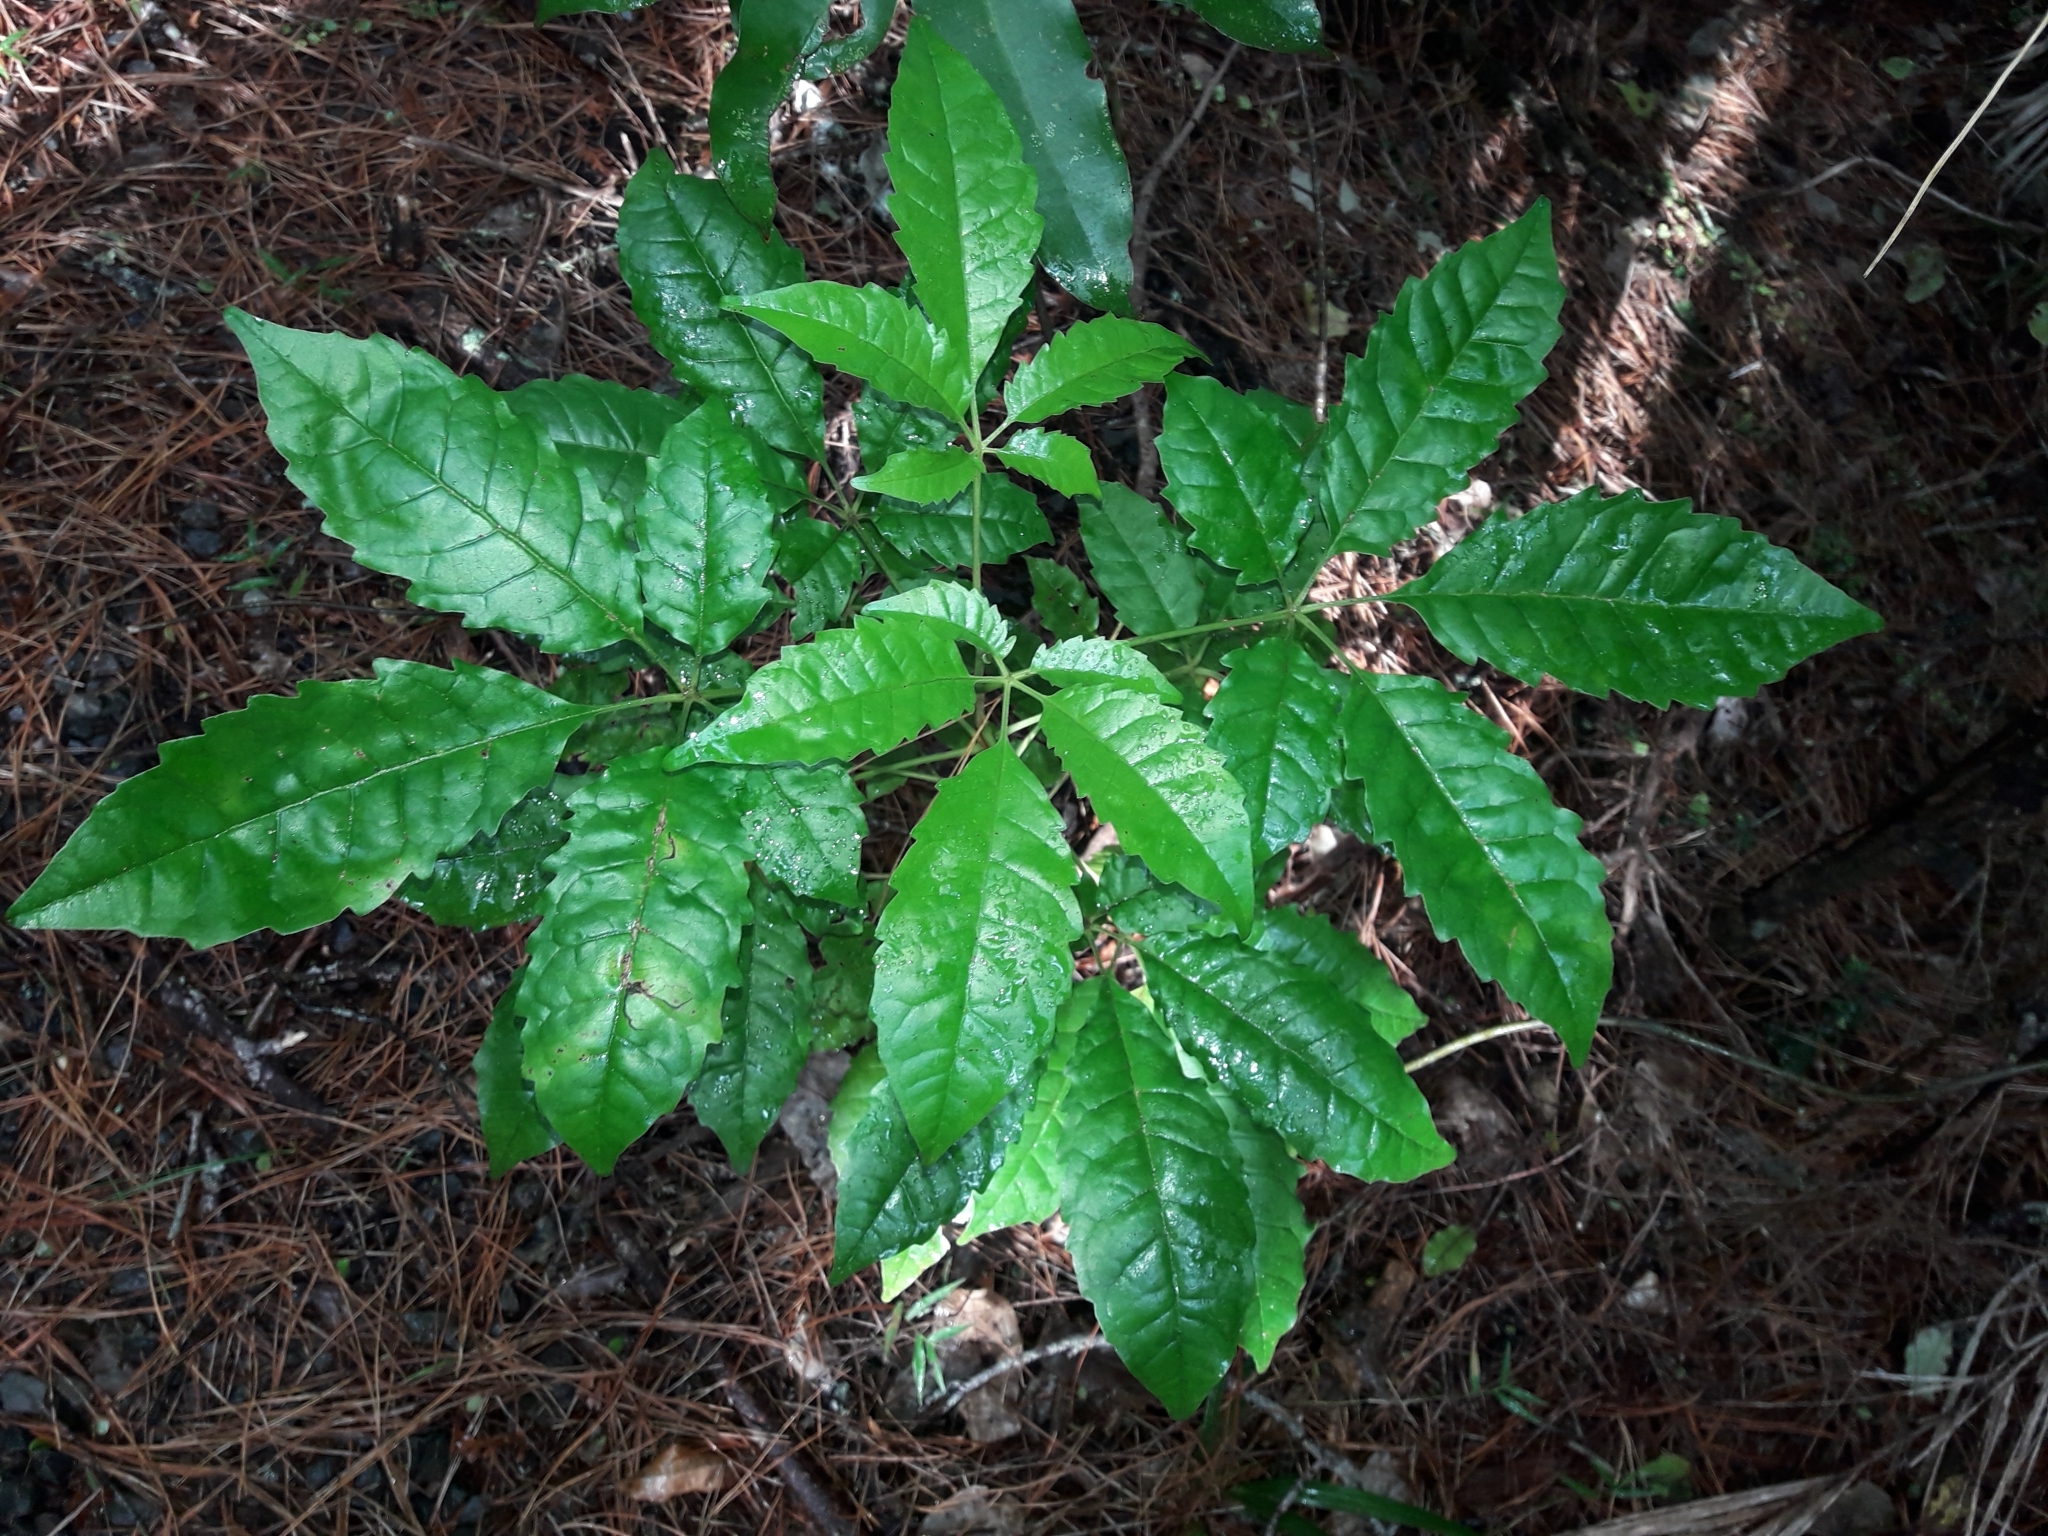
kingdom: Plantae
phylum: Tracheophyta
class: Magnoliopsida
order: Lamiales
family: Lamiaceae
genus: Vitex
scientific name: Vitex lucens
